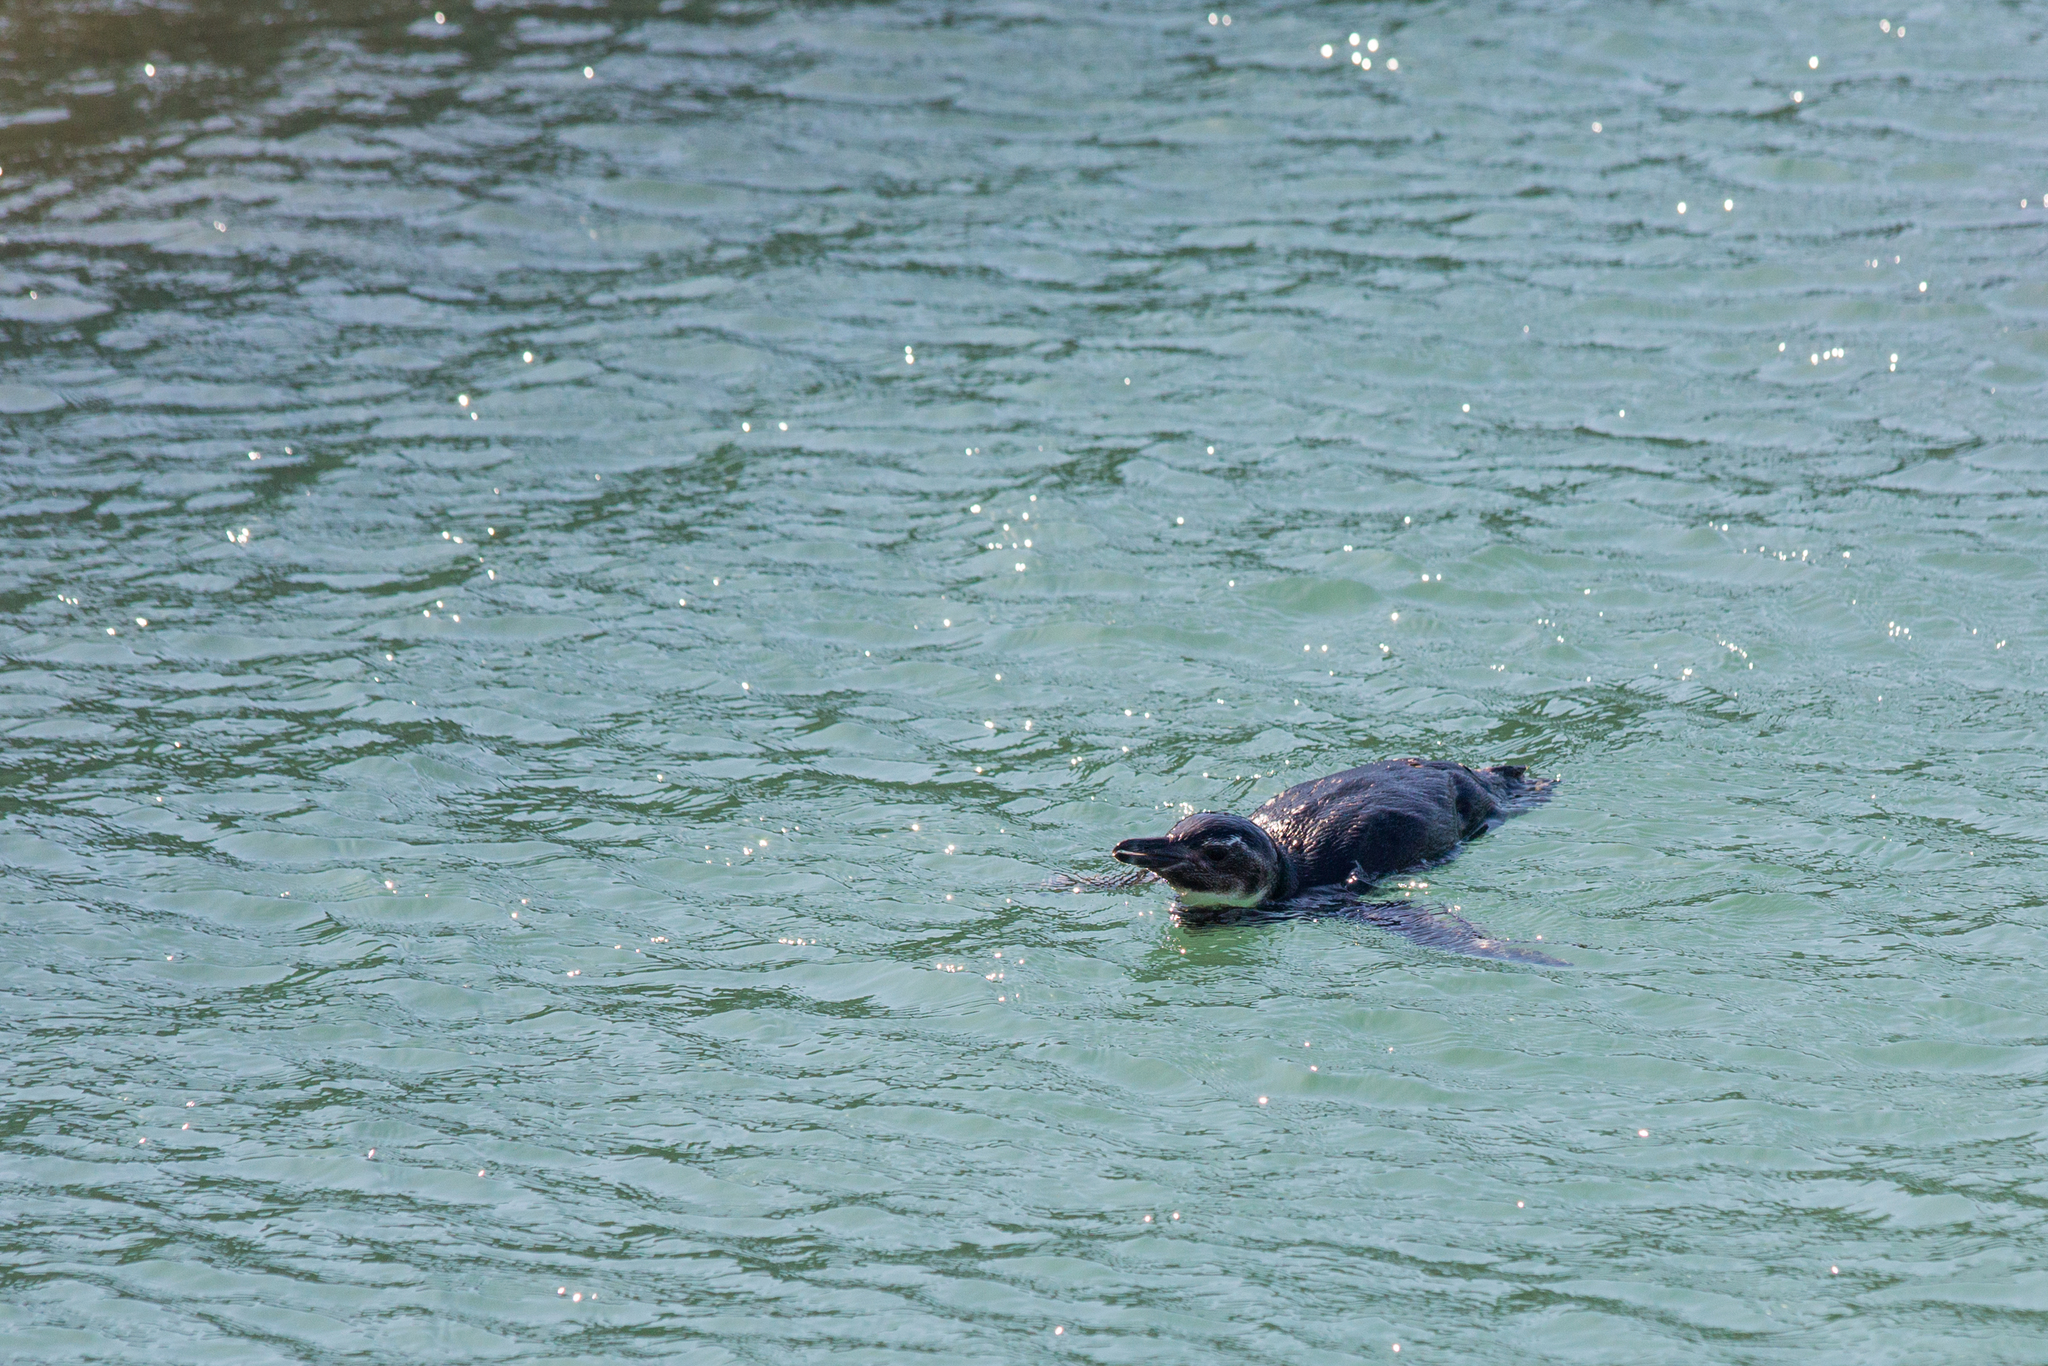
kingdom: Animalia
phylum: Chordata
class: Aves
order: Sphenisciformes
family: Spheniscidae
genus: Spheniscus
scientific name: Spheniscus magellanicus
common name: Magellanic penguin
